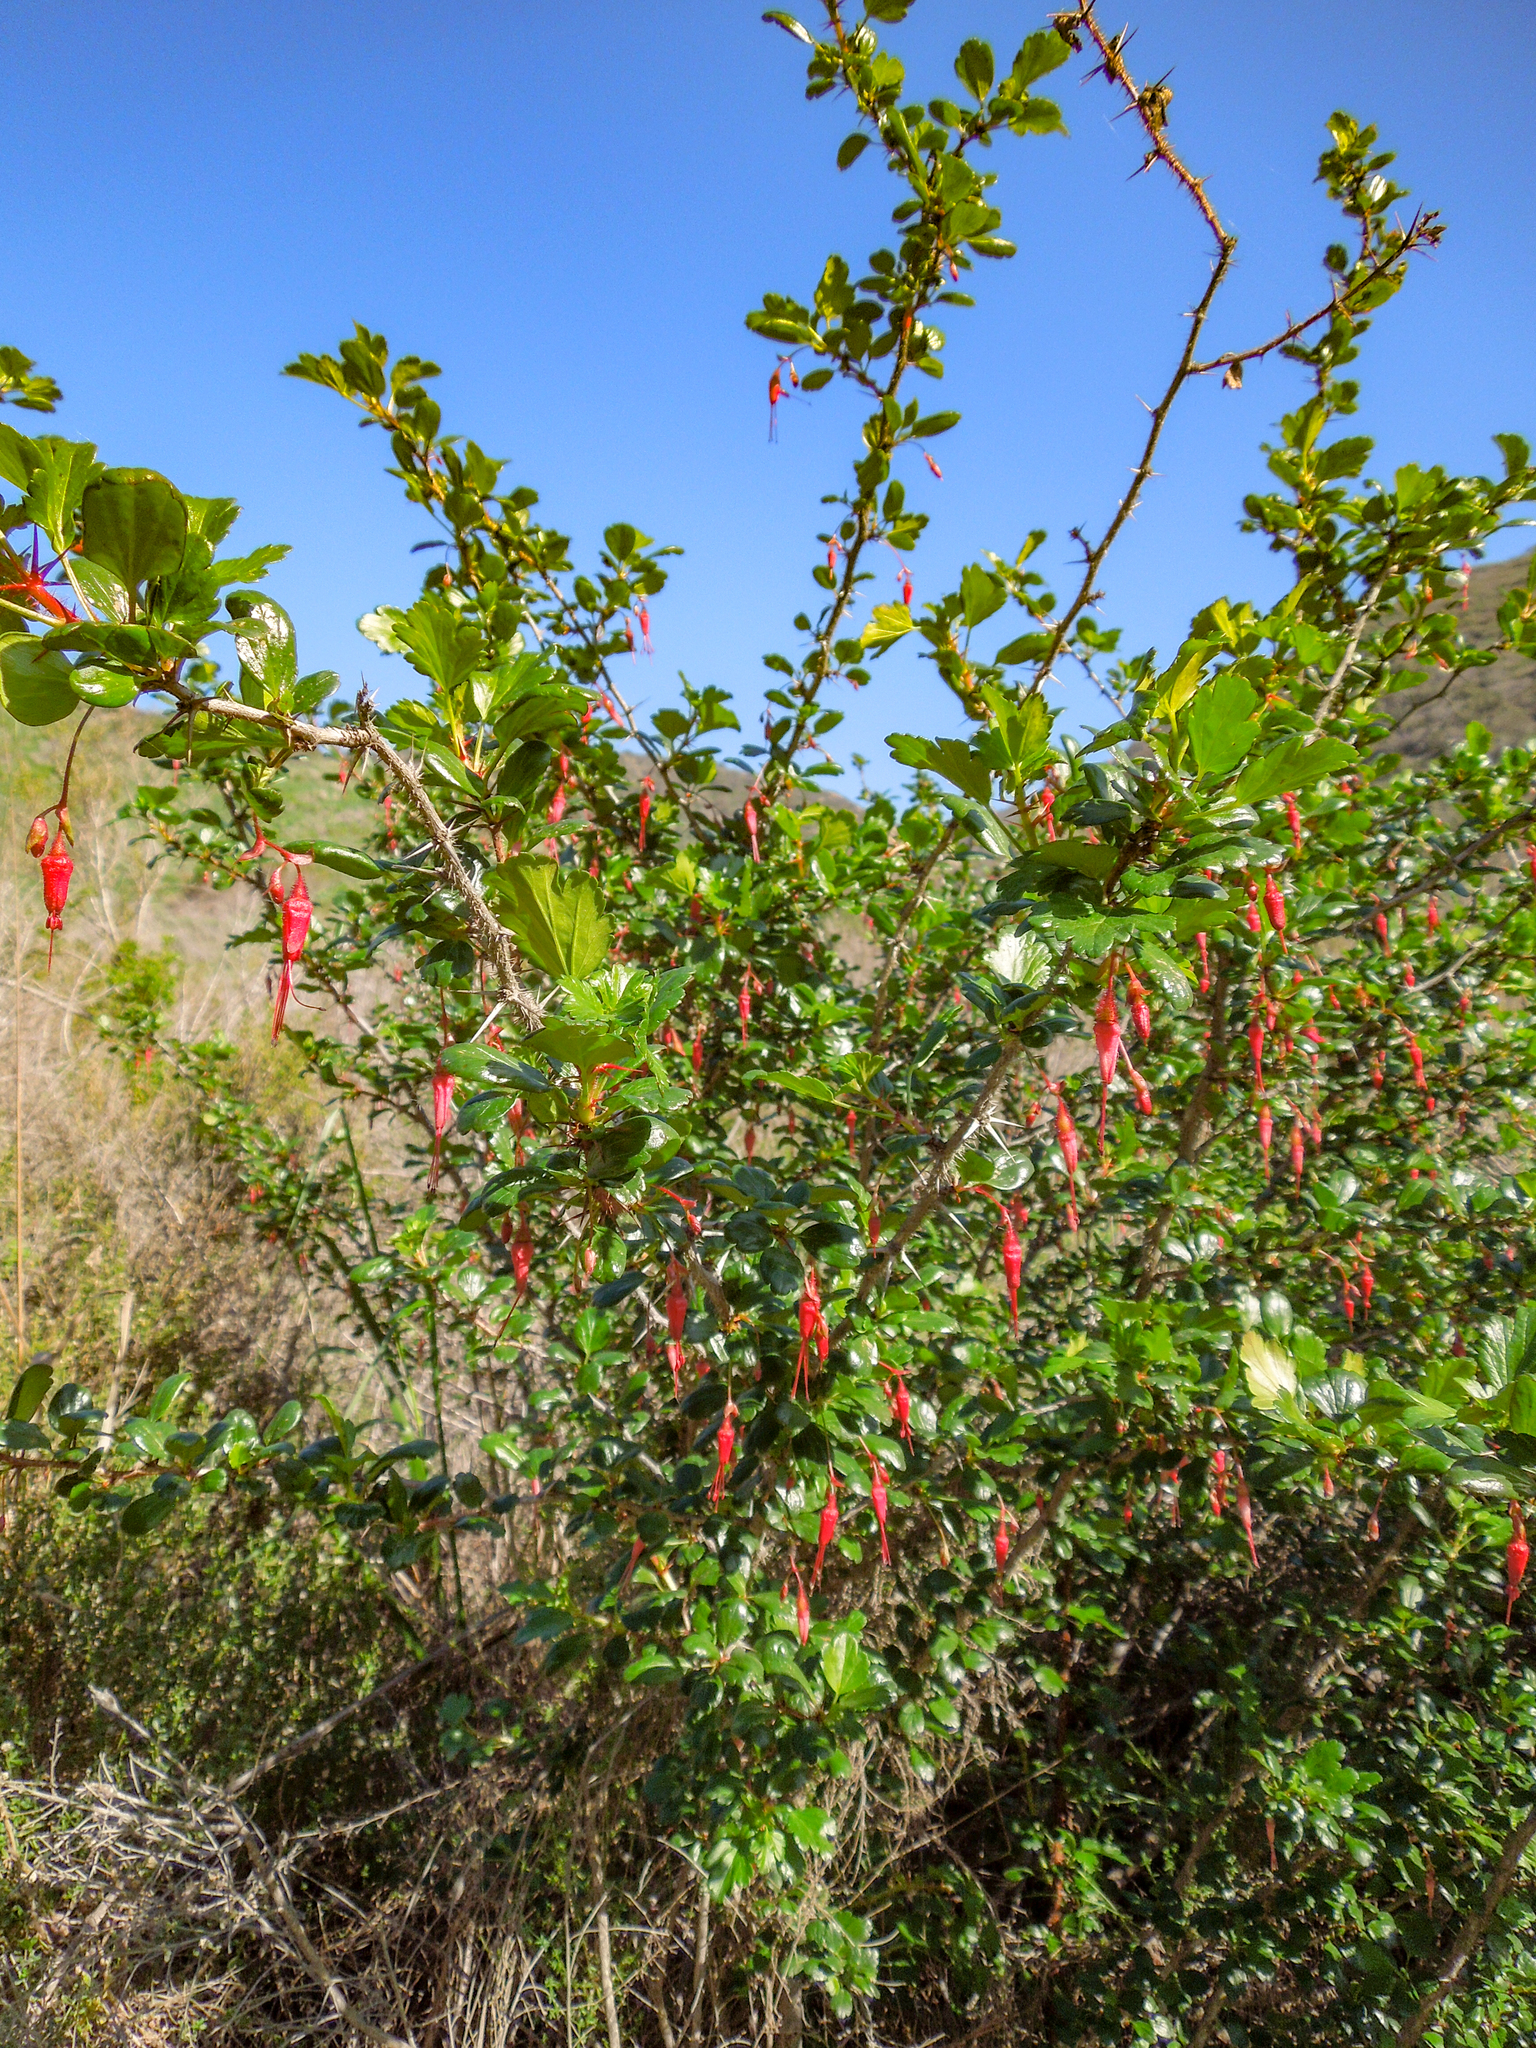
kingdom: Plantae
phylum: Tracheophyta
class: Magnoliopsida
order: Saxifragales
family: Grossulariaceae
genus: Ribes
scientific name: Ribes speciosum
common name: Fuchsia-flower gooseberry
